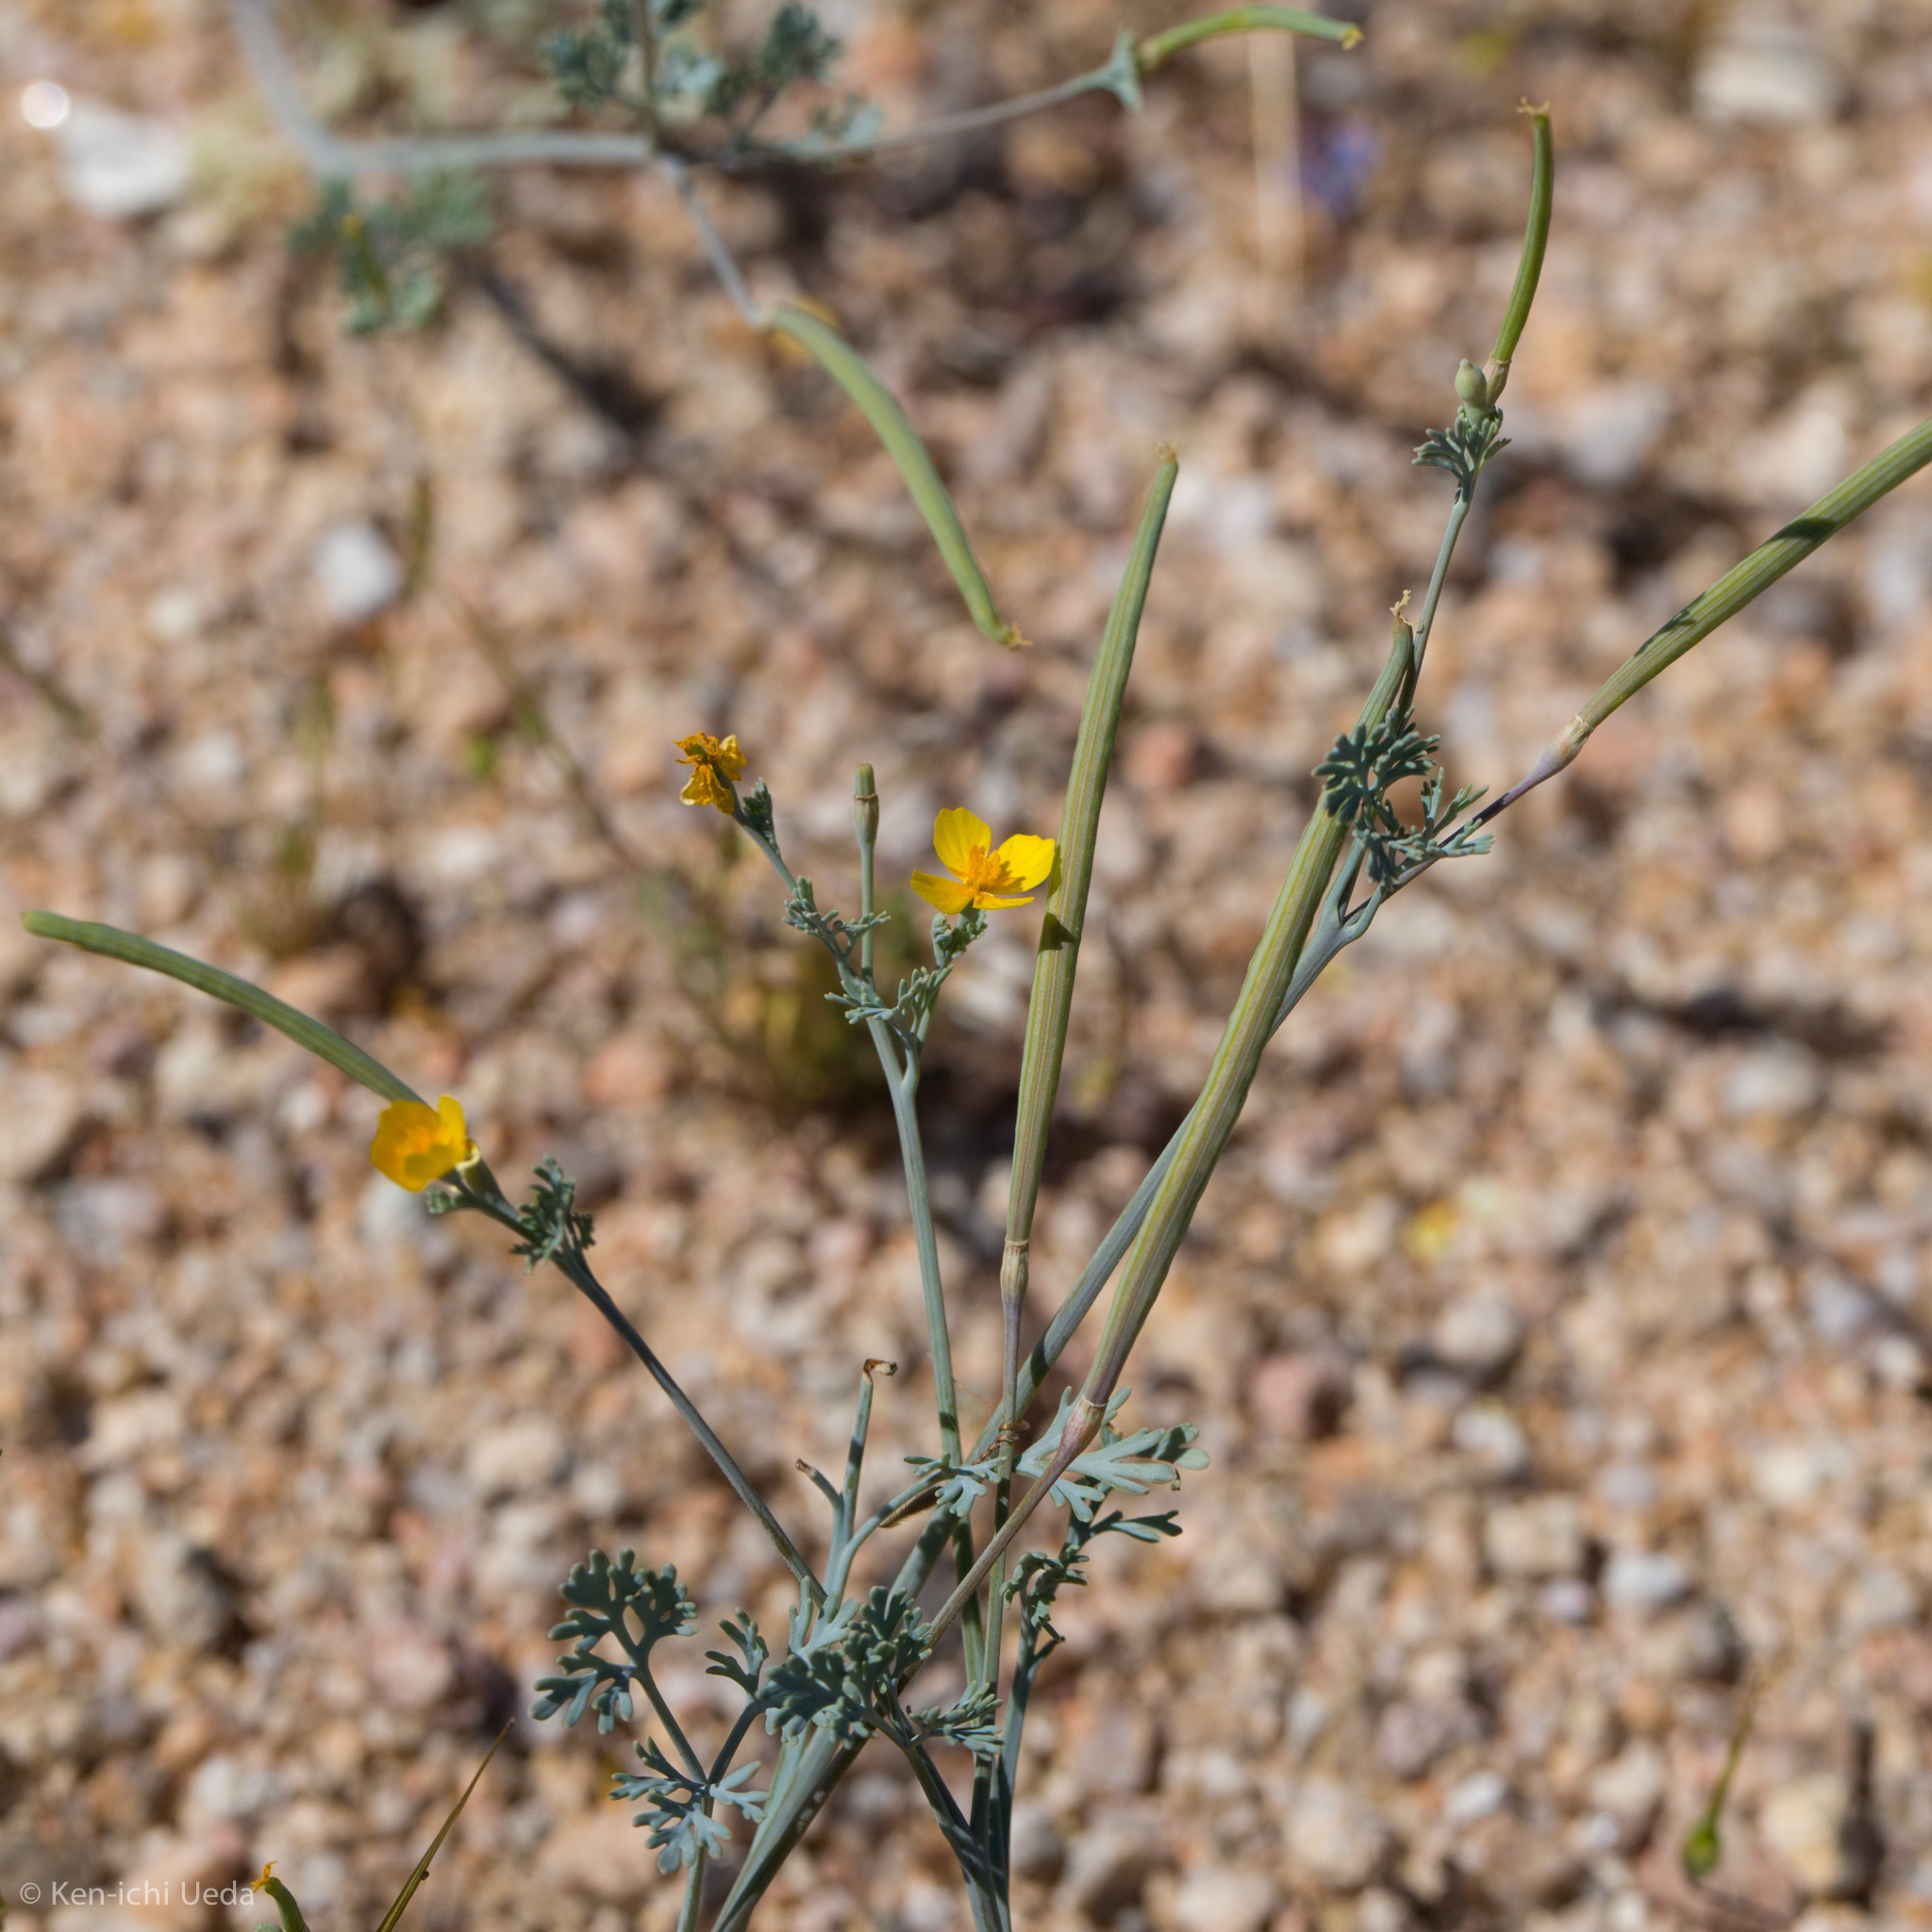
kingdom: Plantae
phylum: Tracheophyta
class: Magnoliopsida
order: Ranunculales
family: Papaveraceae
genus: Eschscholzia
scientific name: Eschscholzia minutiflora
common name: Small-flower california-poppy
